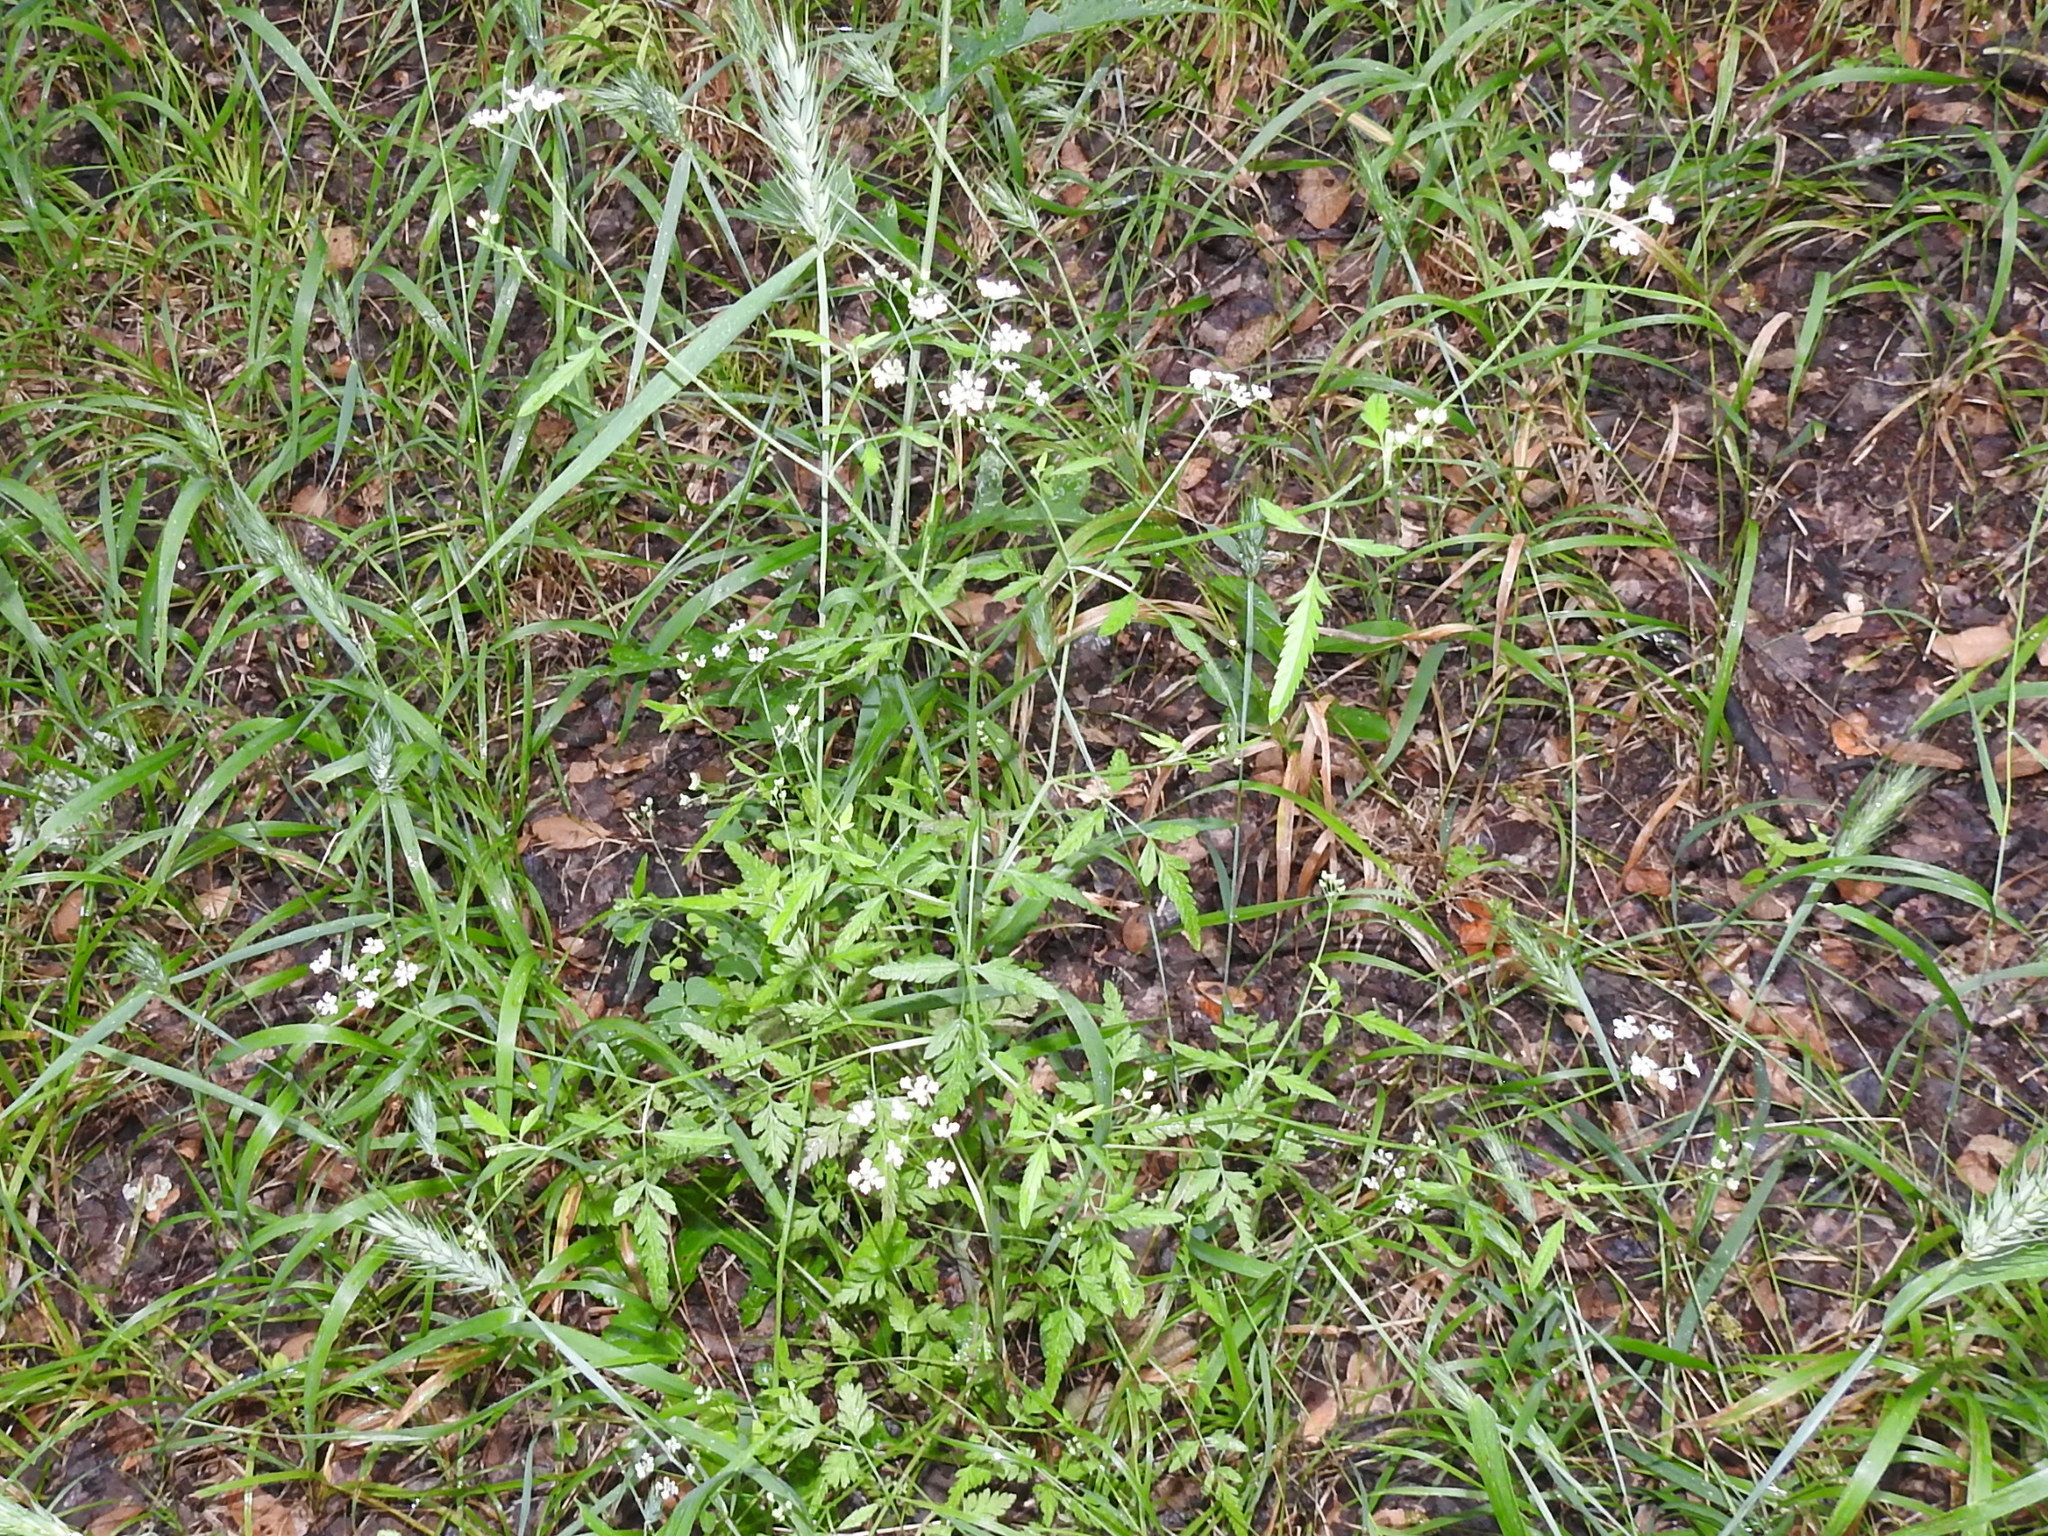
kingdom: Plantae
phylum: Tracheophyta
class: Magnoliopsida
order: Apiales
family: Apiaceae
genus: Torilis
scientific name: Torilis arvensis
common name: Spreading hedge-parsley
